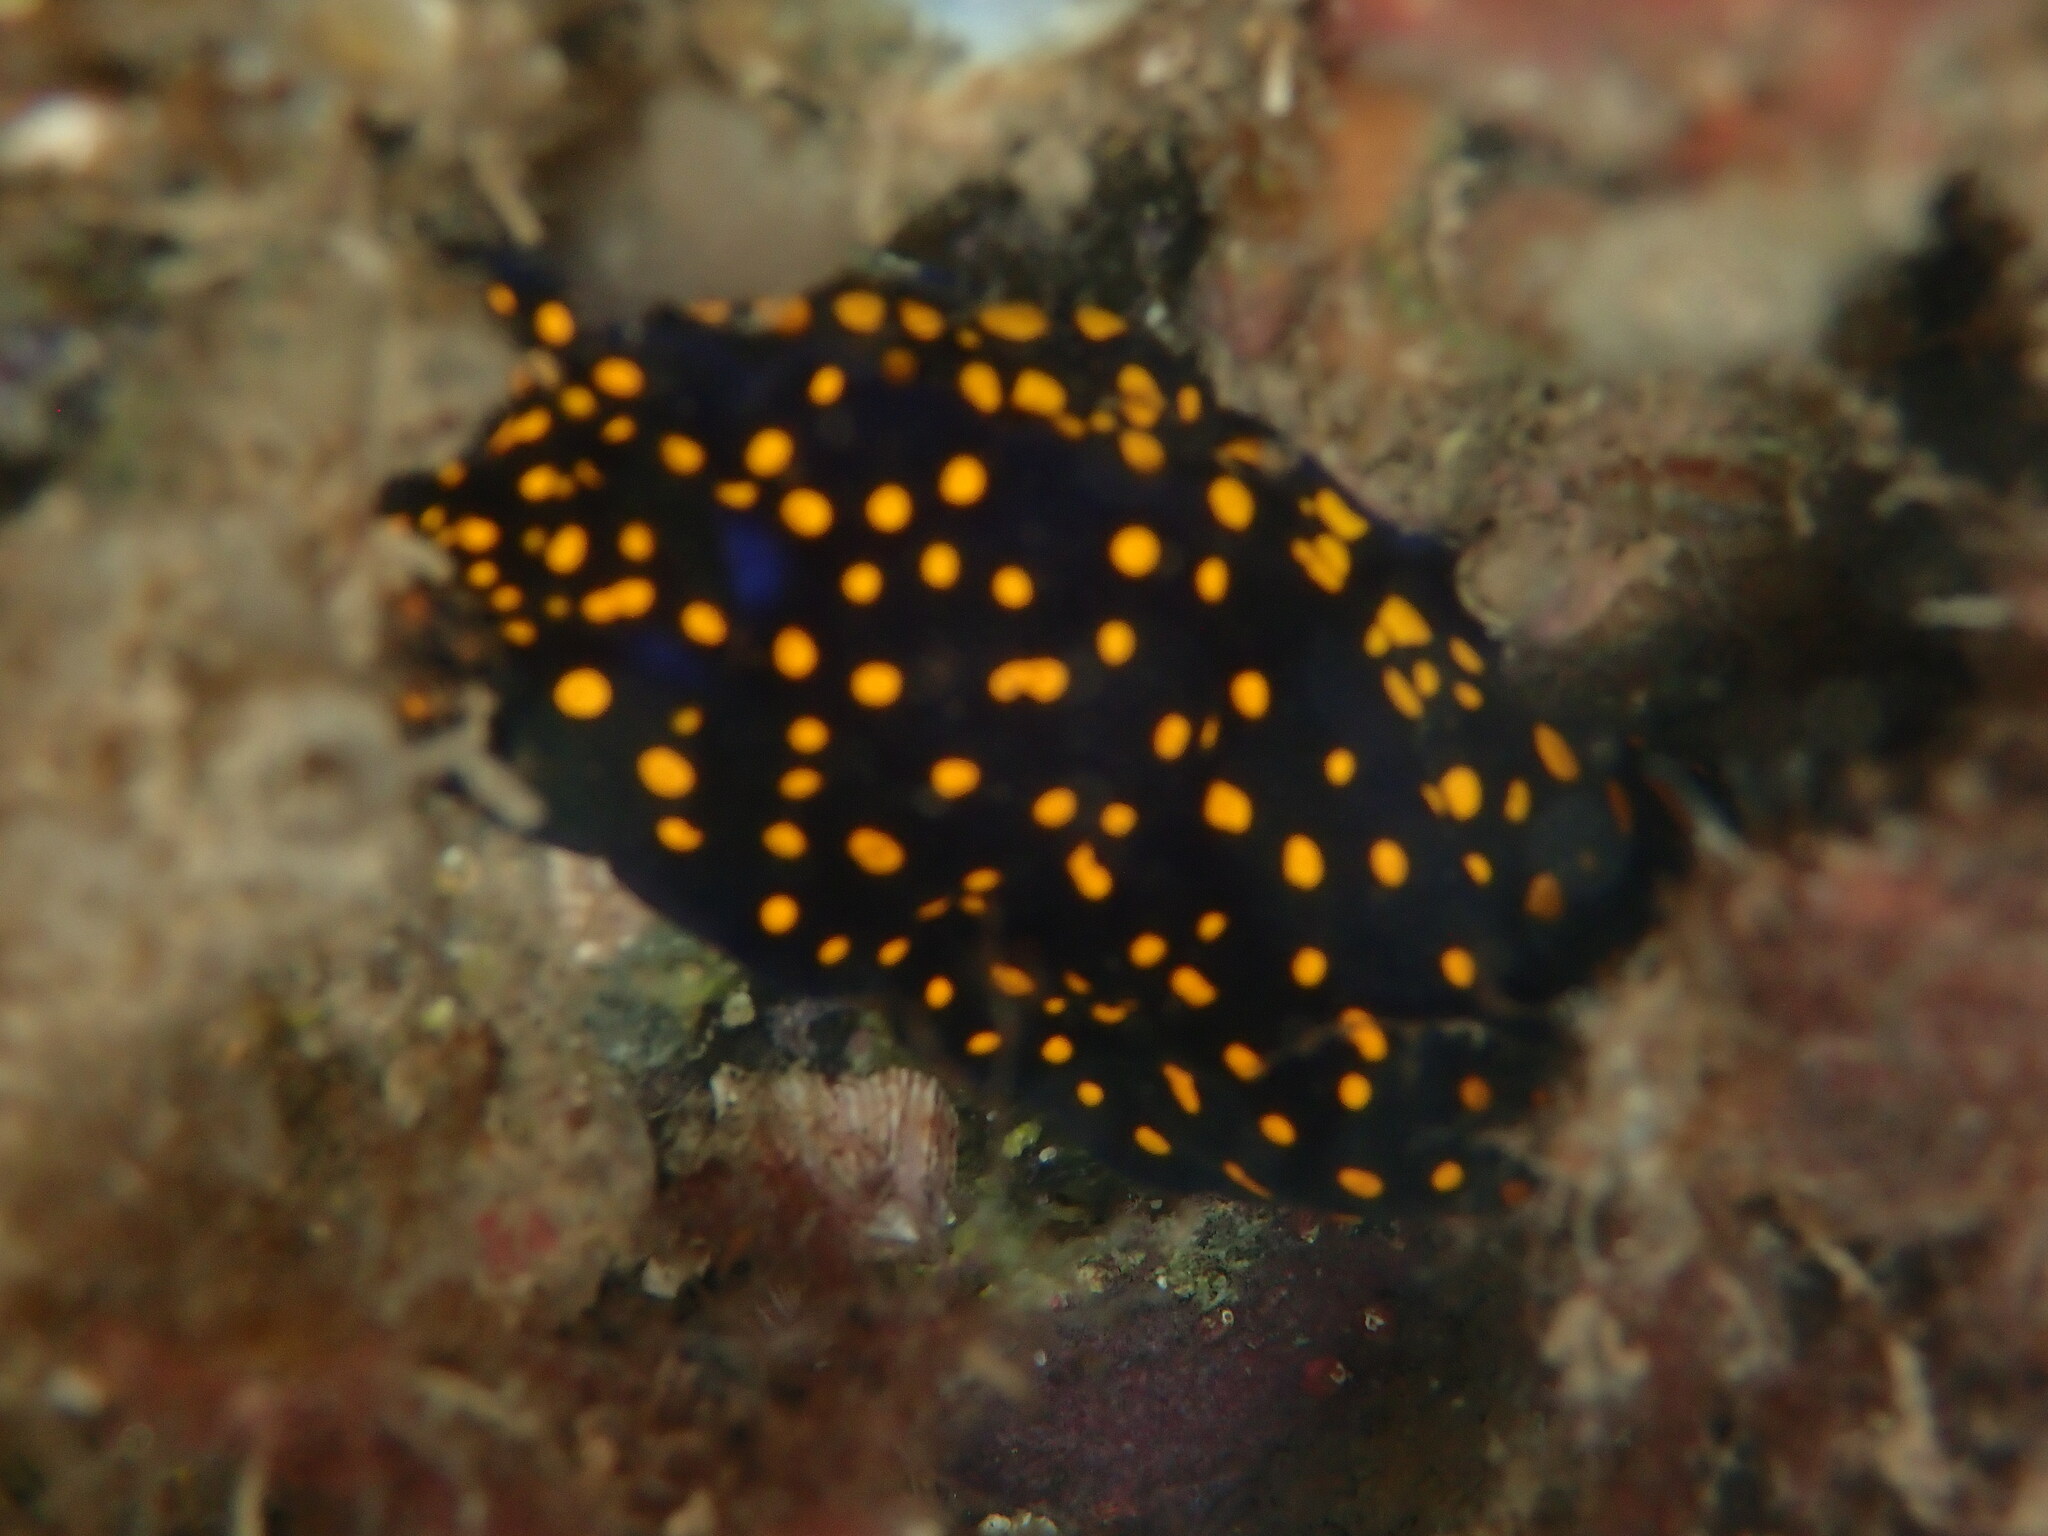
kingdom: Animalia
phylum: Mollusca
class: Gastropoda
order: Nudibranchia
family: Chromodorididae
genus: Felimare
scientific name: Felimare californiensis
